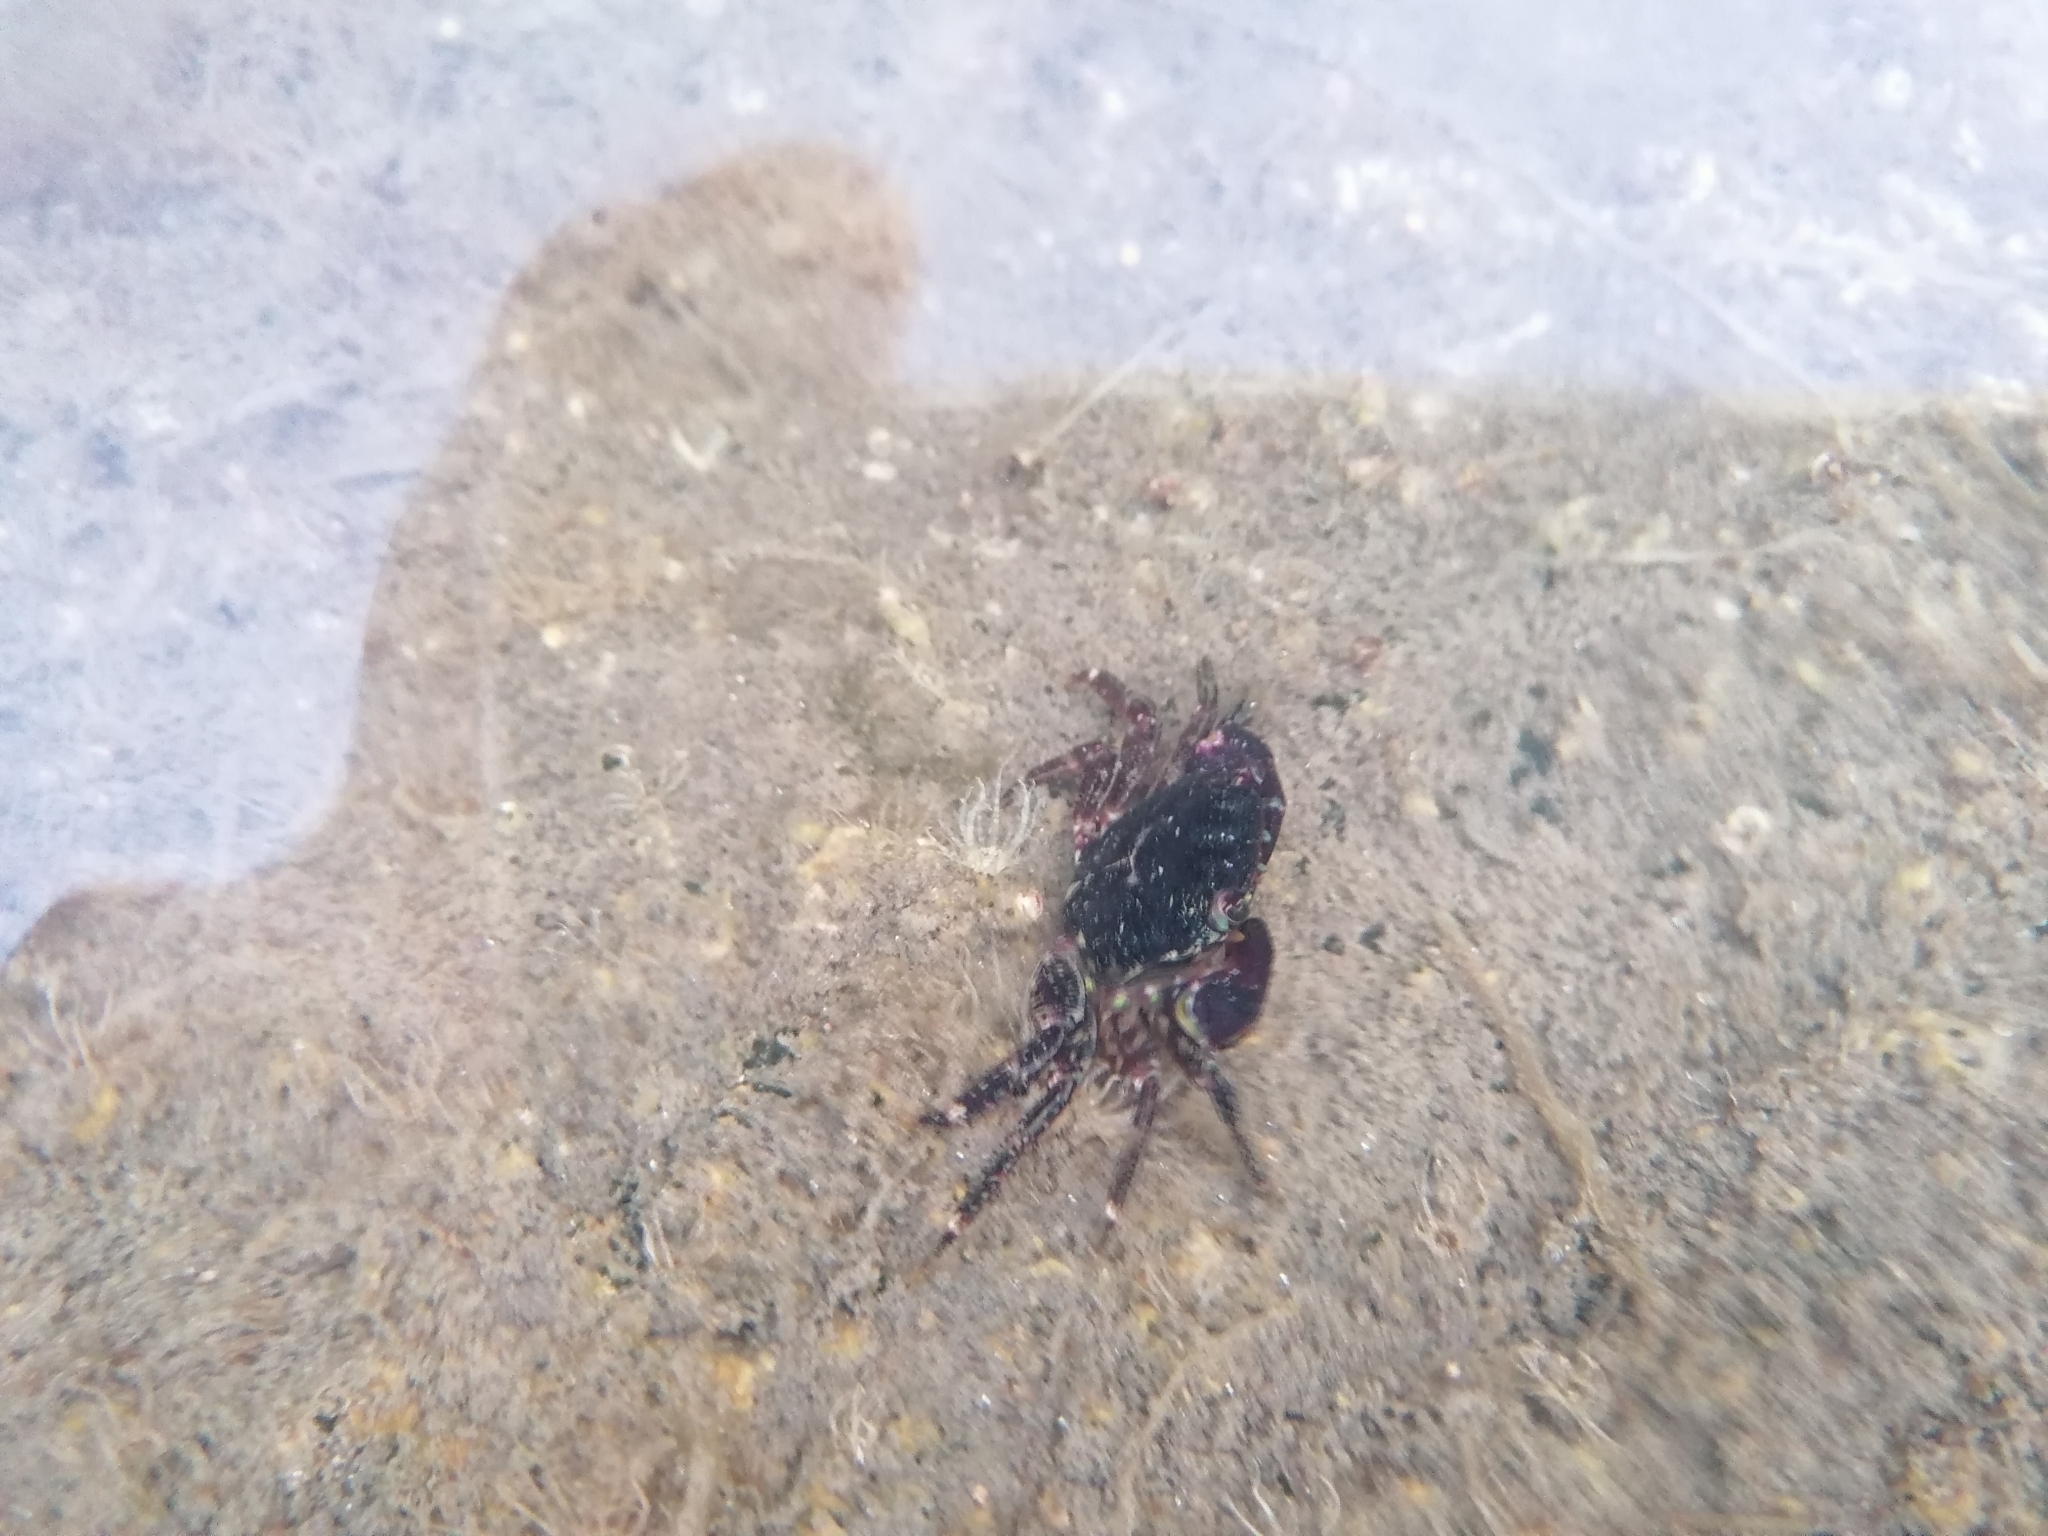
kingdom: Animalia
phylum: Arthropoda
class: Malacostraca
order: Decapoda
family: Grapsidae
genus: Pachygrapsus
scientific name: Pachygrapsus marmoratus
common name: Marbled rock crab
